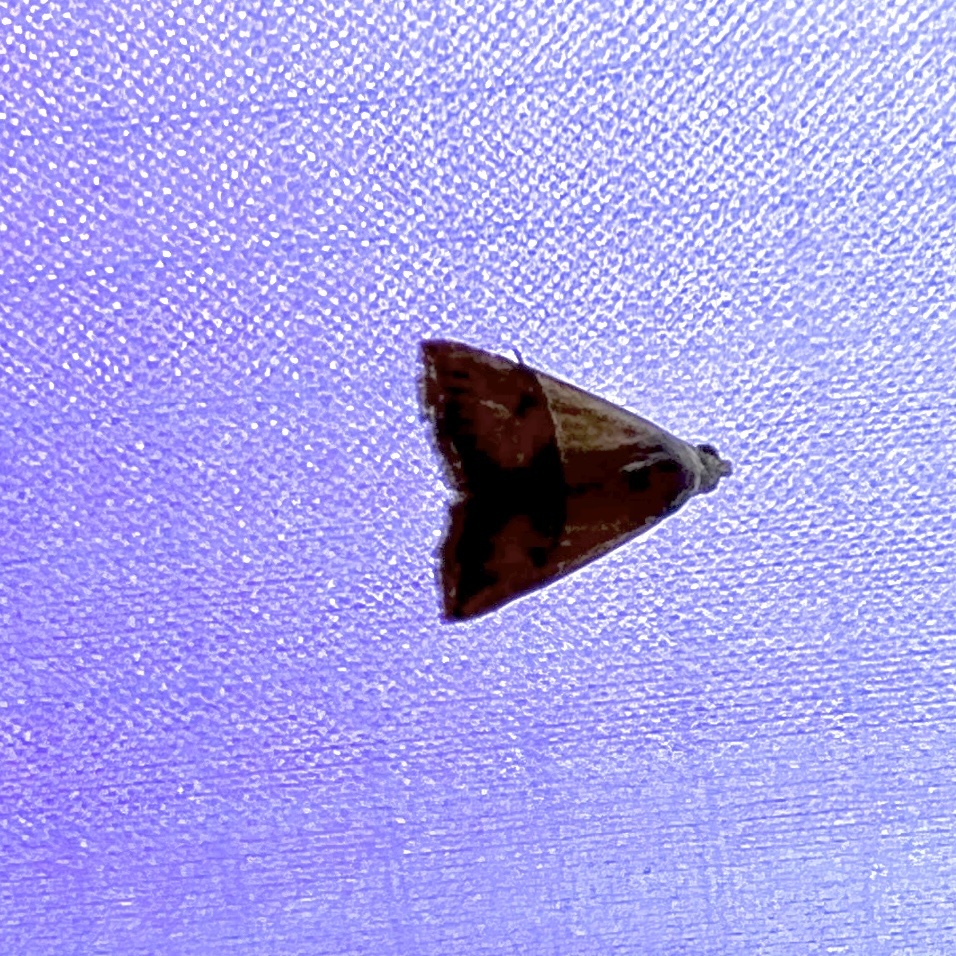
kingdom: Animalia
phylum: Arthropoda
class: Insecta
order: Lepidoptera
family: Noctuidae
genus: Eublemma
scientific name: Eublemma accedens
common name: Moth
